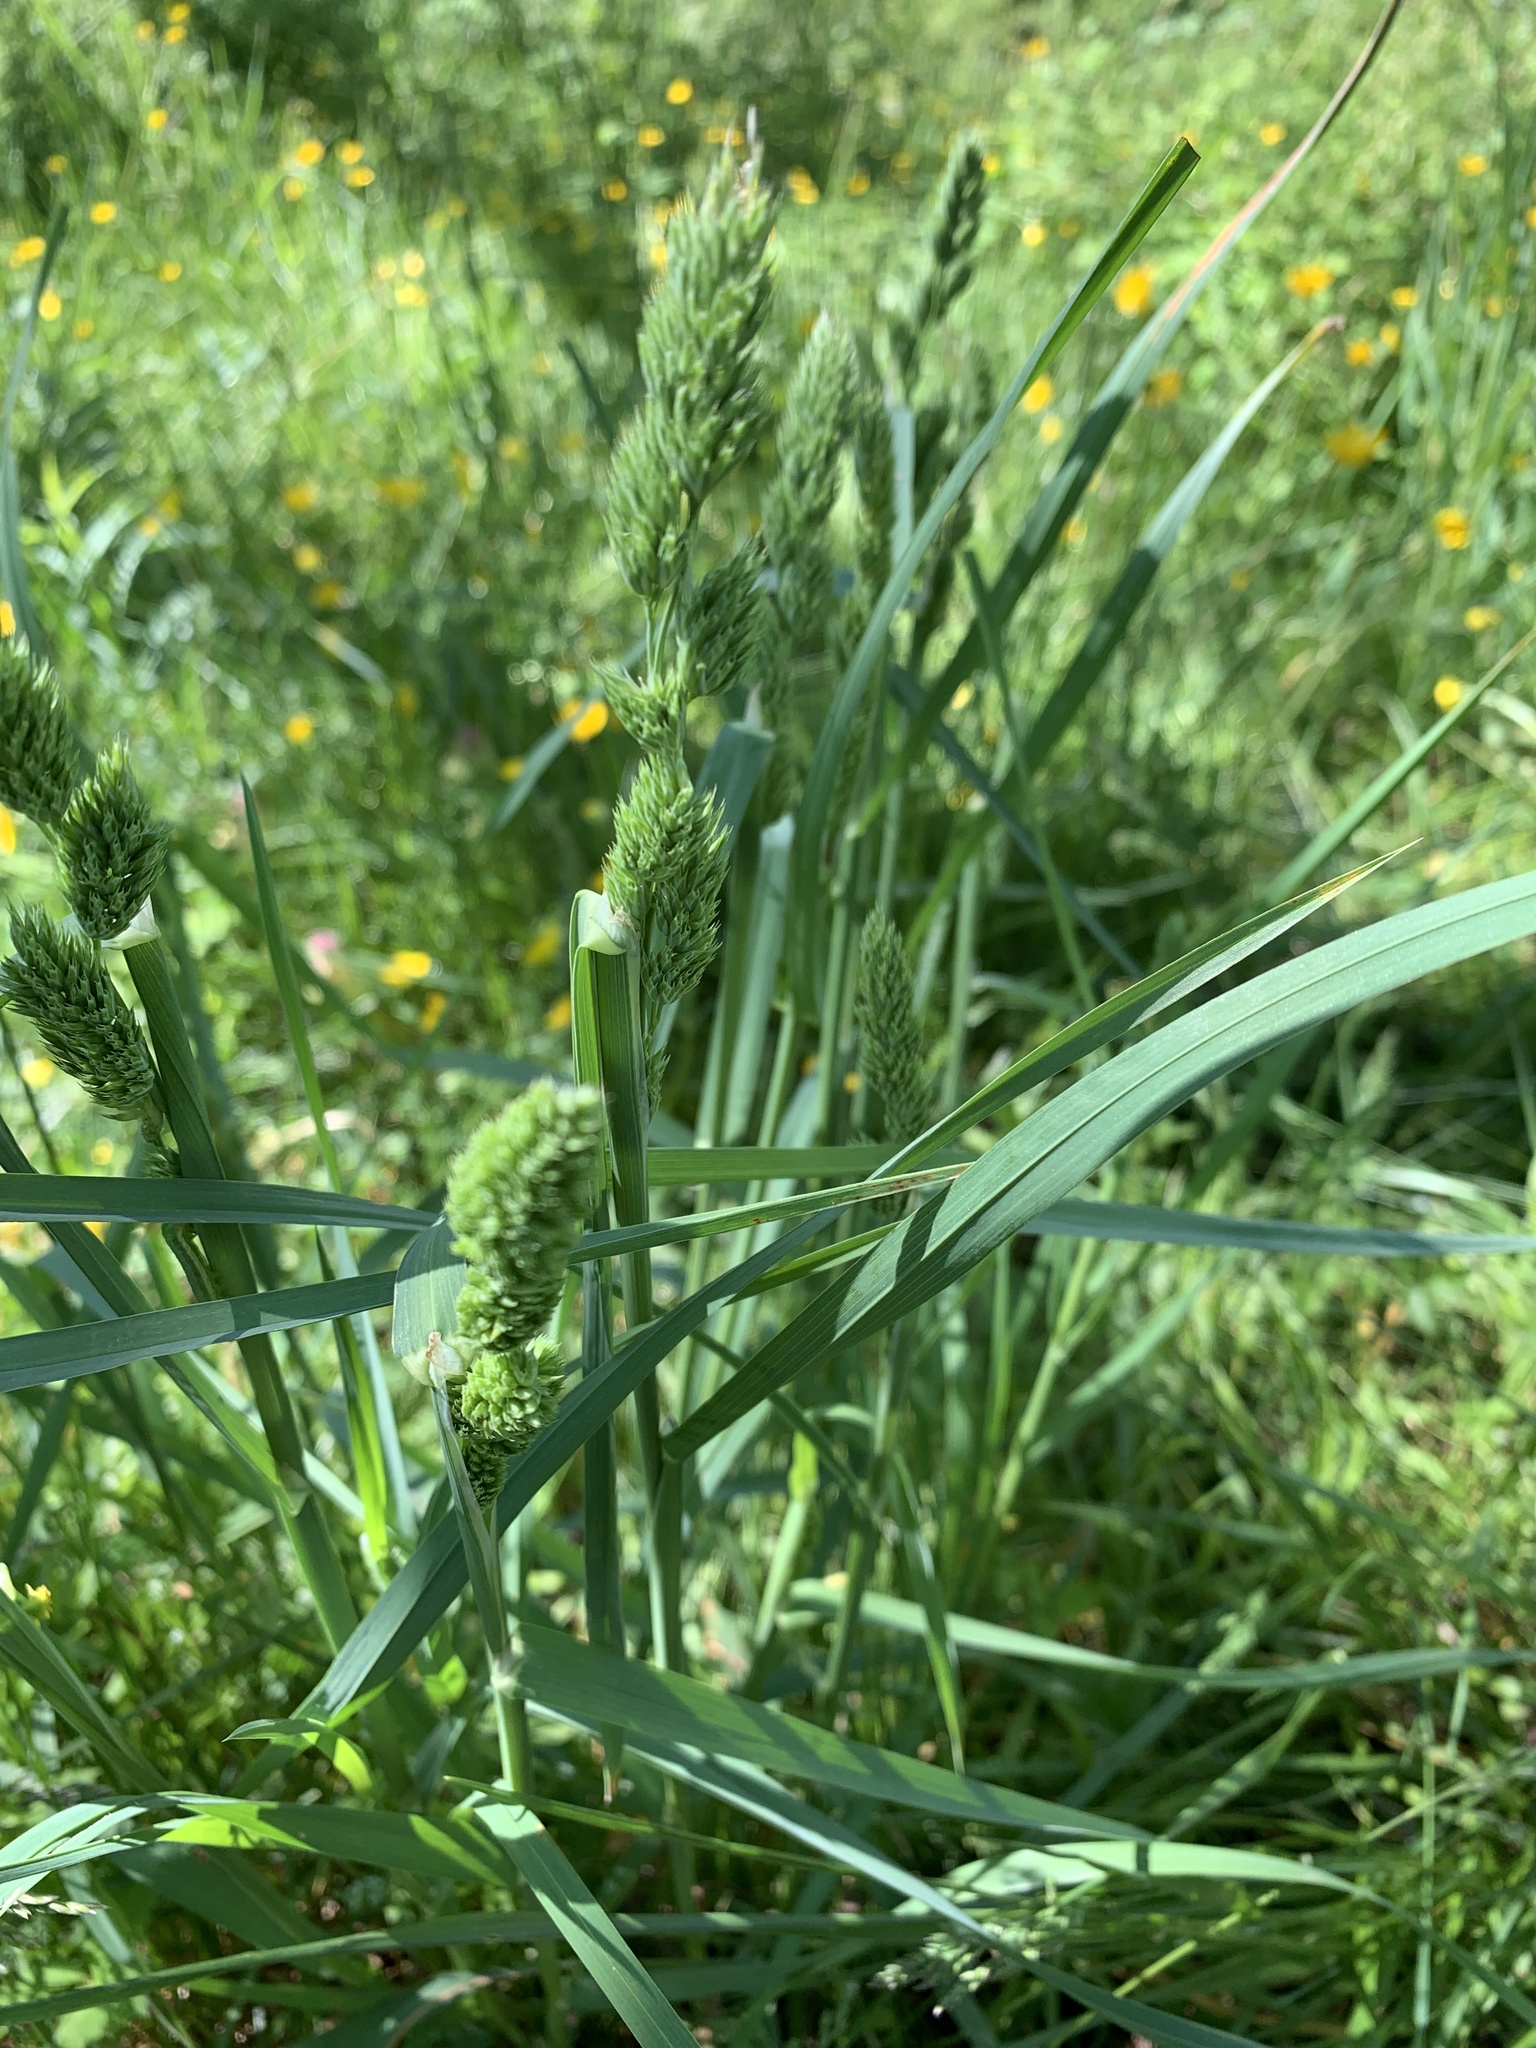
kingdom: Plantae
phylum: Tracheophyta
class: Liliopsida
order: Poales
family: Poaceae
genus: Dactylis
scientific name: Dactylis glomerata
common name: Orchardgrass
